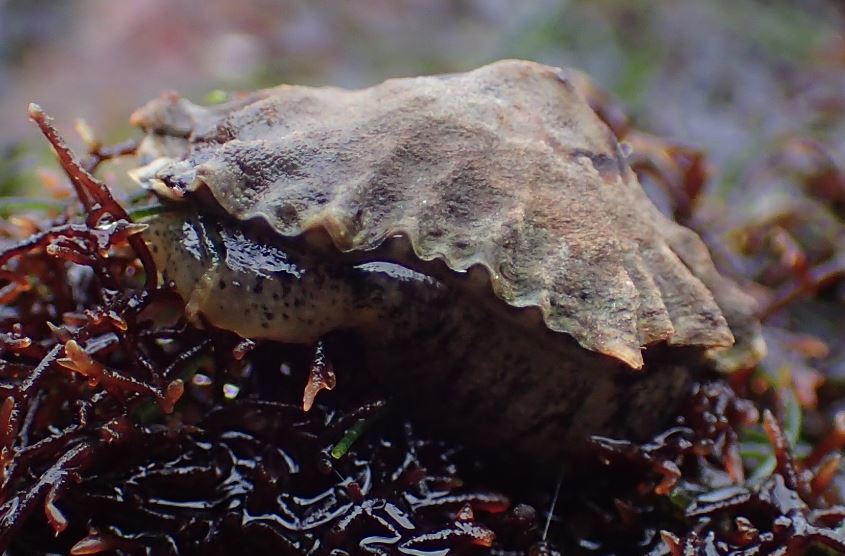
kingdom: Animalia
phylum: Mollusca
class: Gastropoda
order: Siphonariida
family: Siphonariidae
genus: Siphonaria
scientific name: Siphonaria australis
